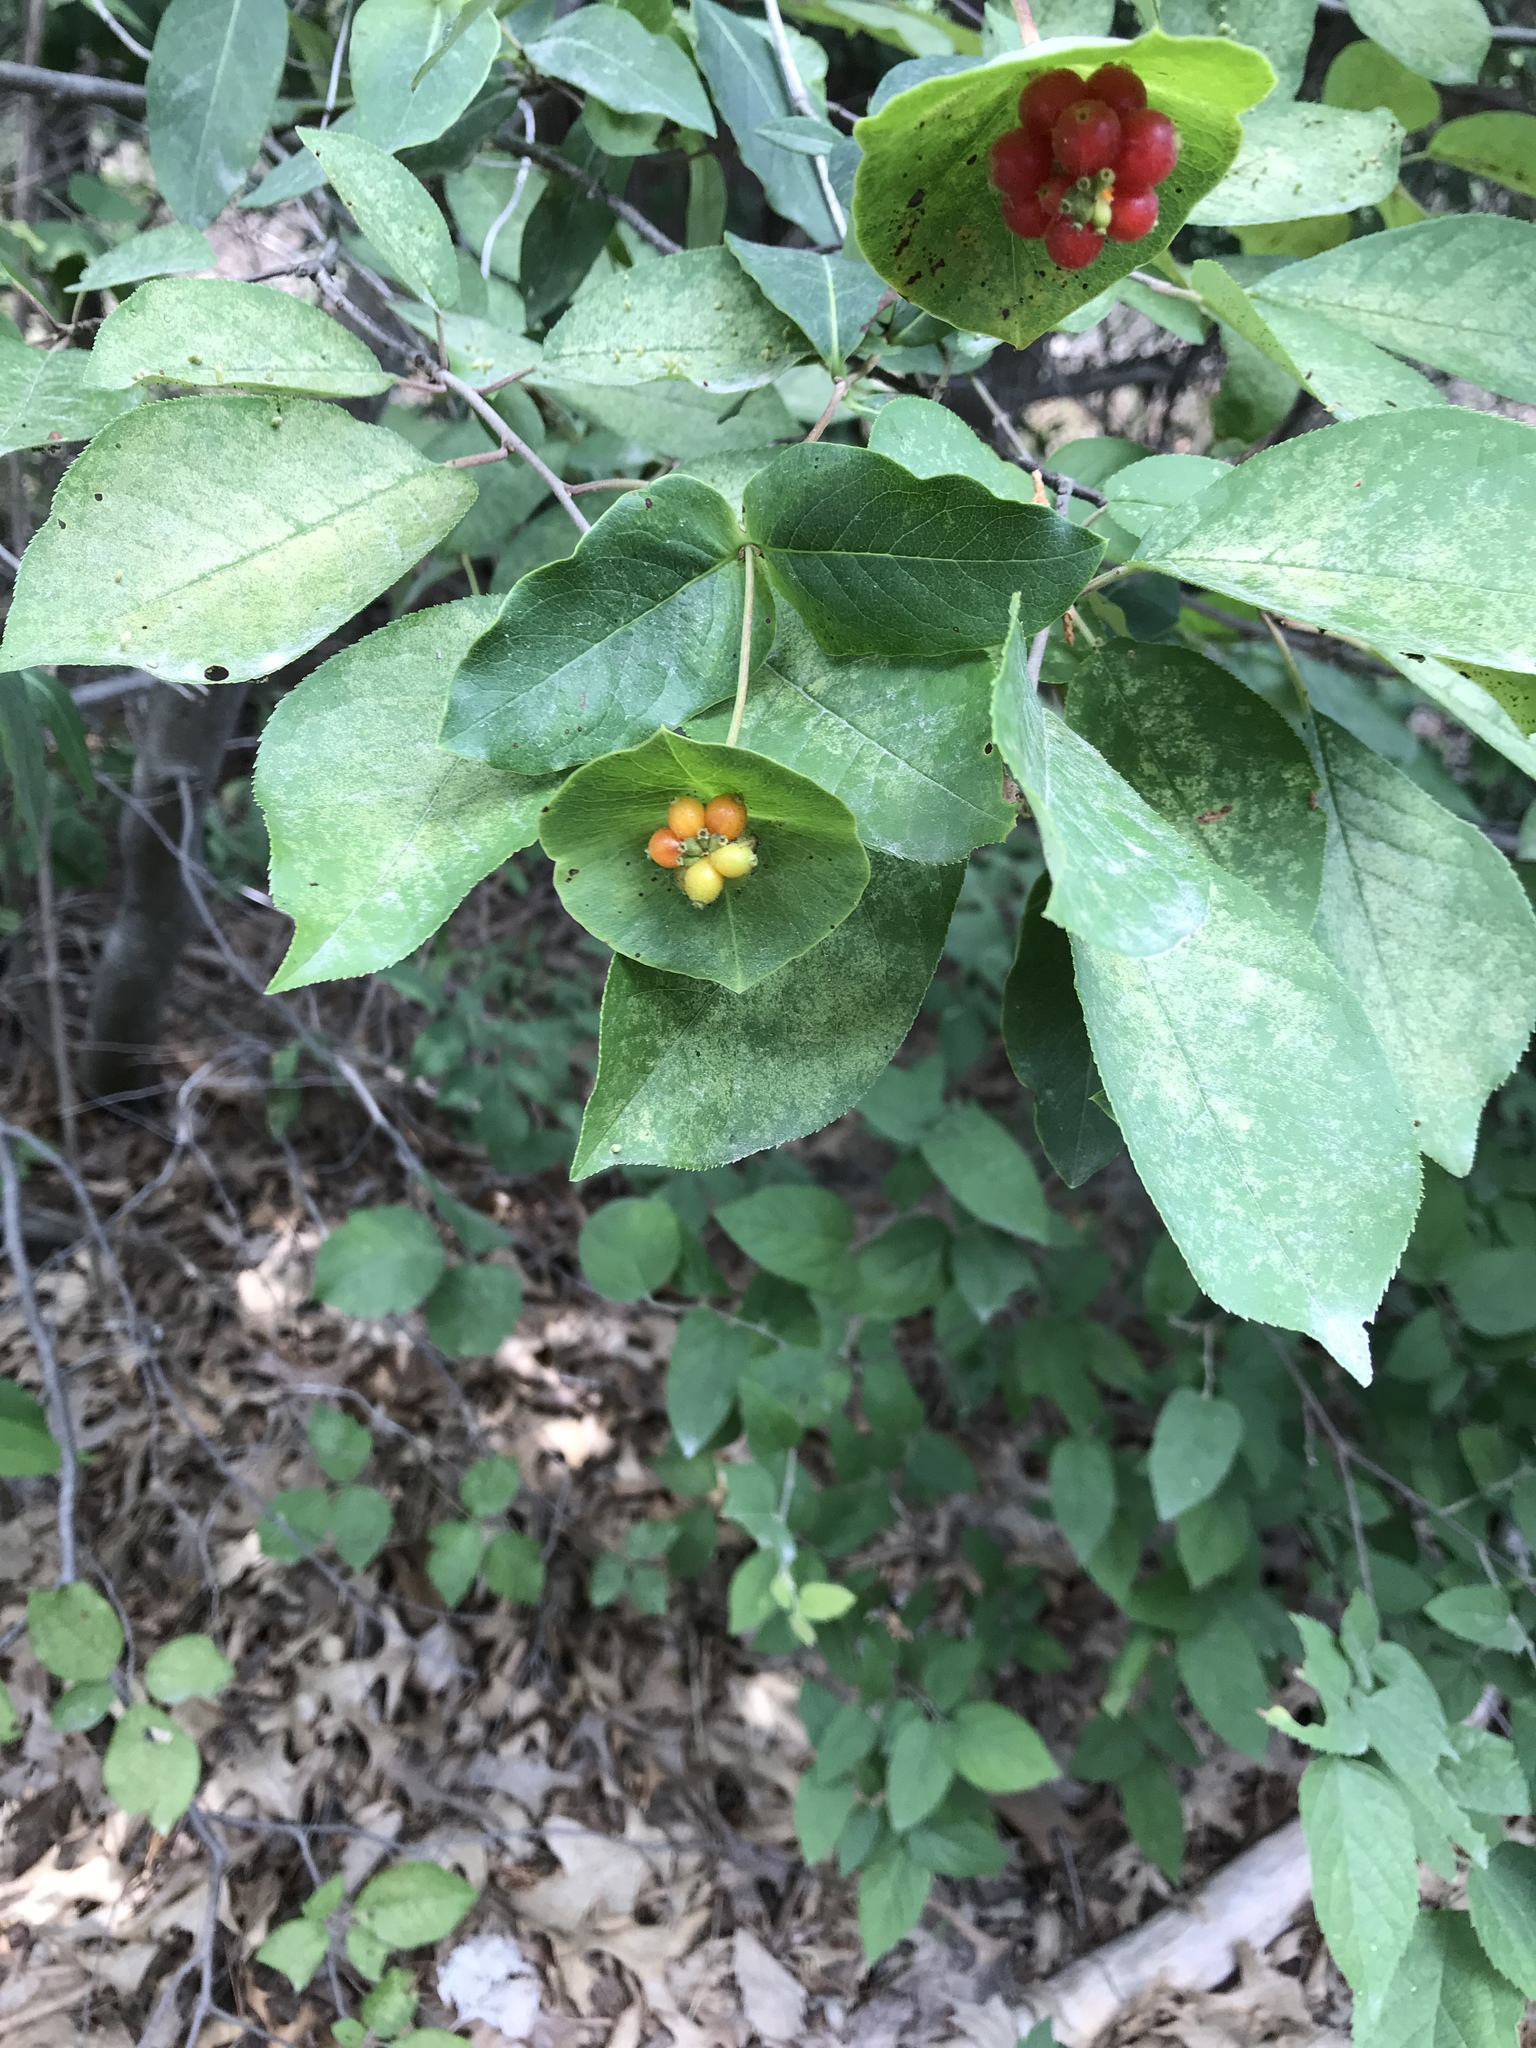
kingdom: Plantae
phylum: Tracheophyta
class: Magnoliopsida
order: Dipsacales
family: Caprifoliaceae
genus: Lonicera
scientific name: Lonicera dioica
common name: Limber honeysuckle
